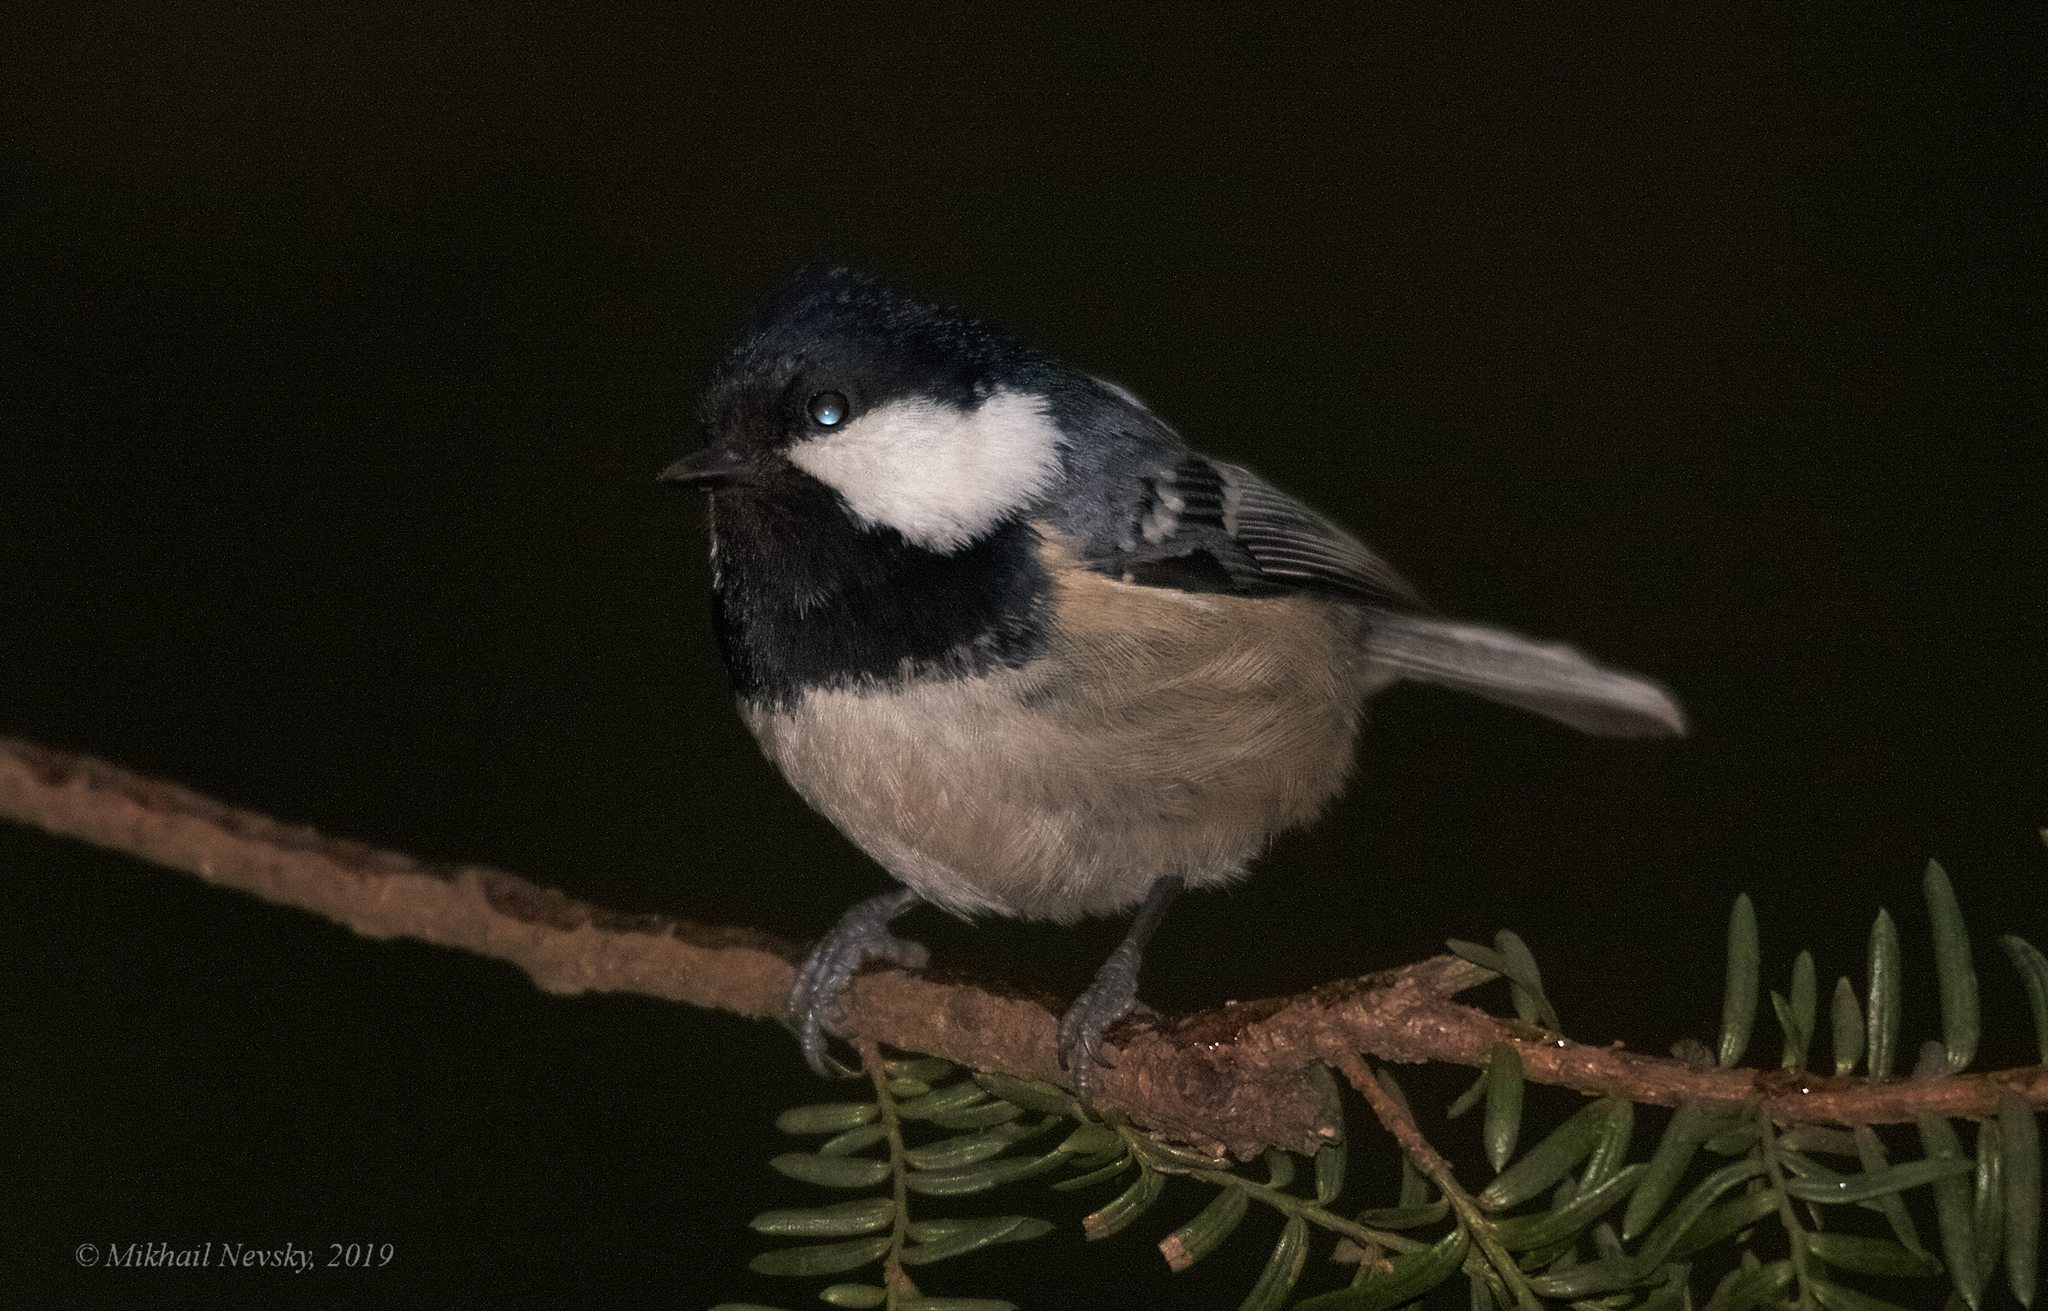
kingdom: Animalia
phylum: Chordata
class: Aves
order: Passeriformes
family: Paridae
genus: Periparus
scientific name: Periparus ater
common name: Coal tit
